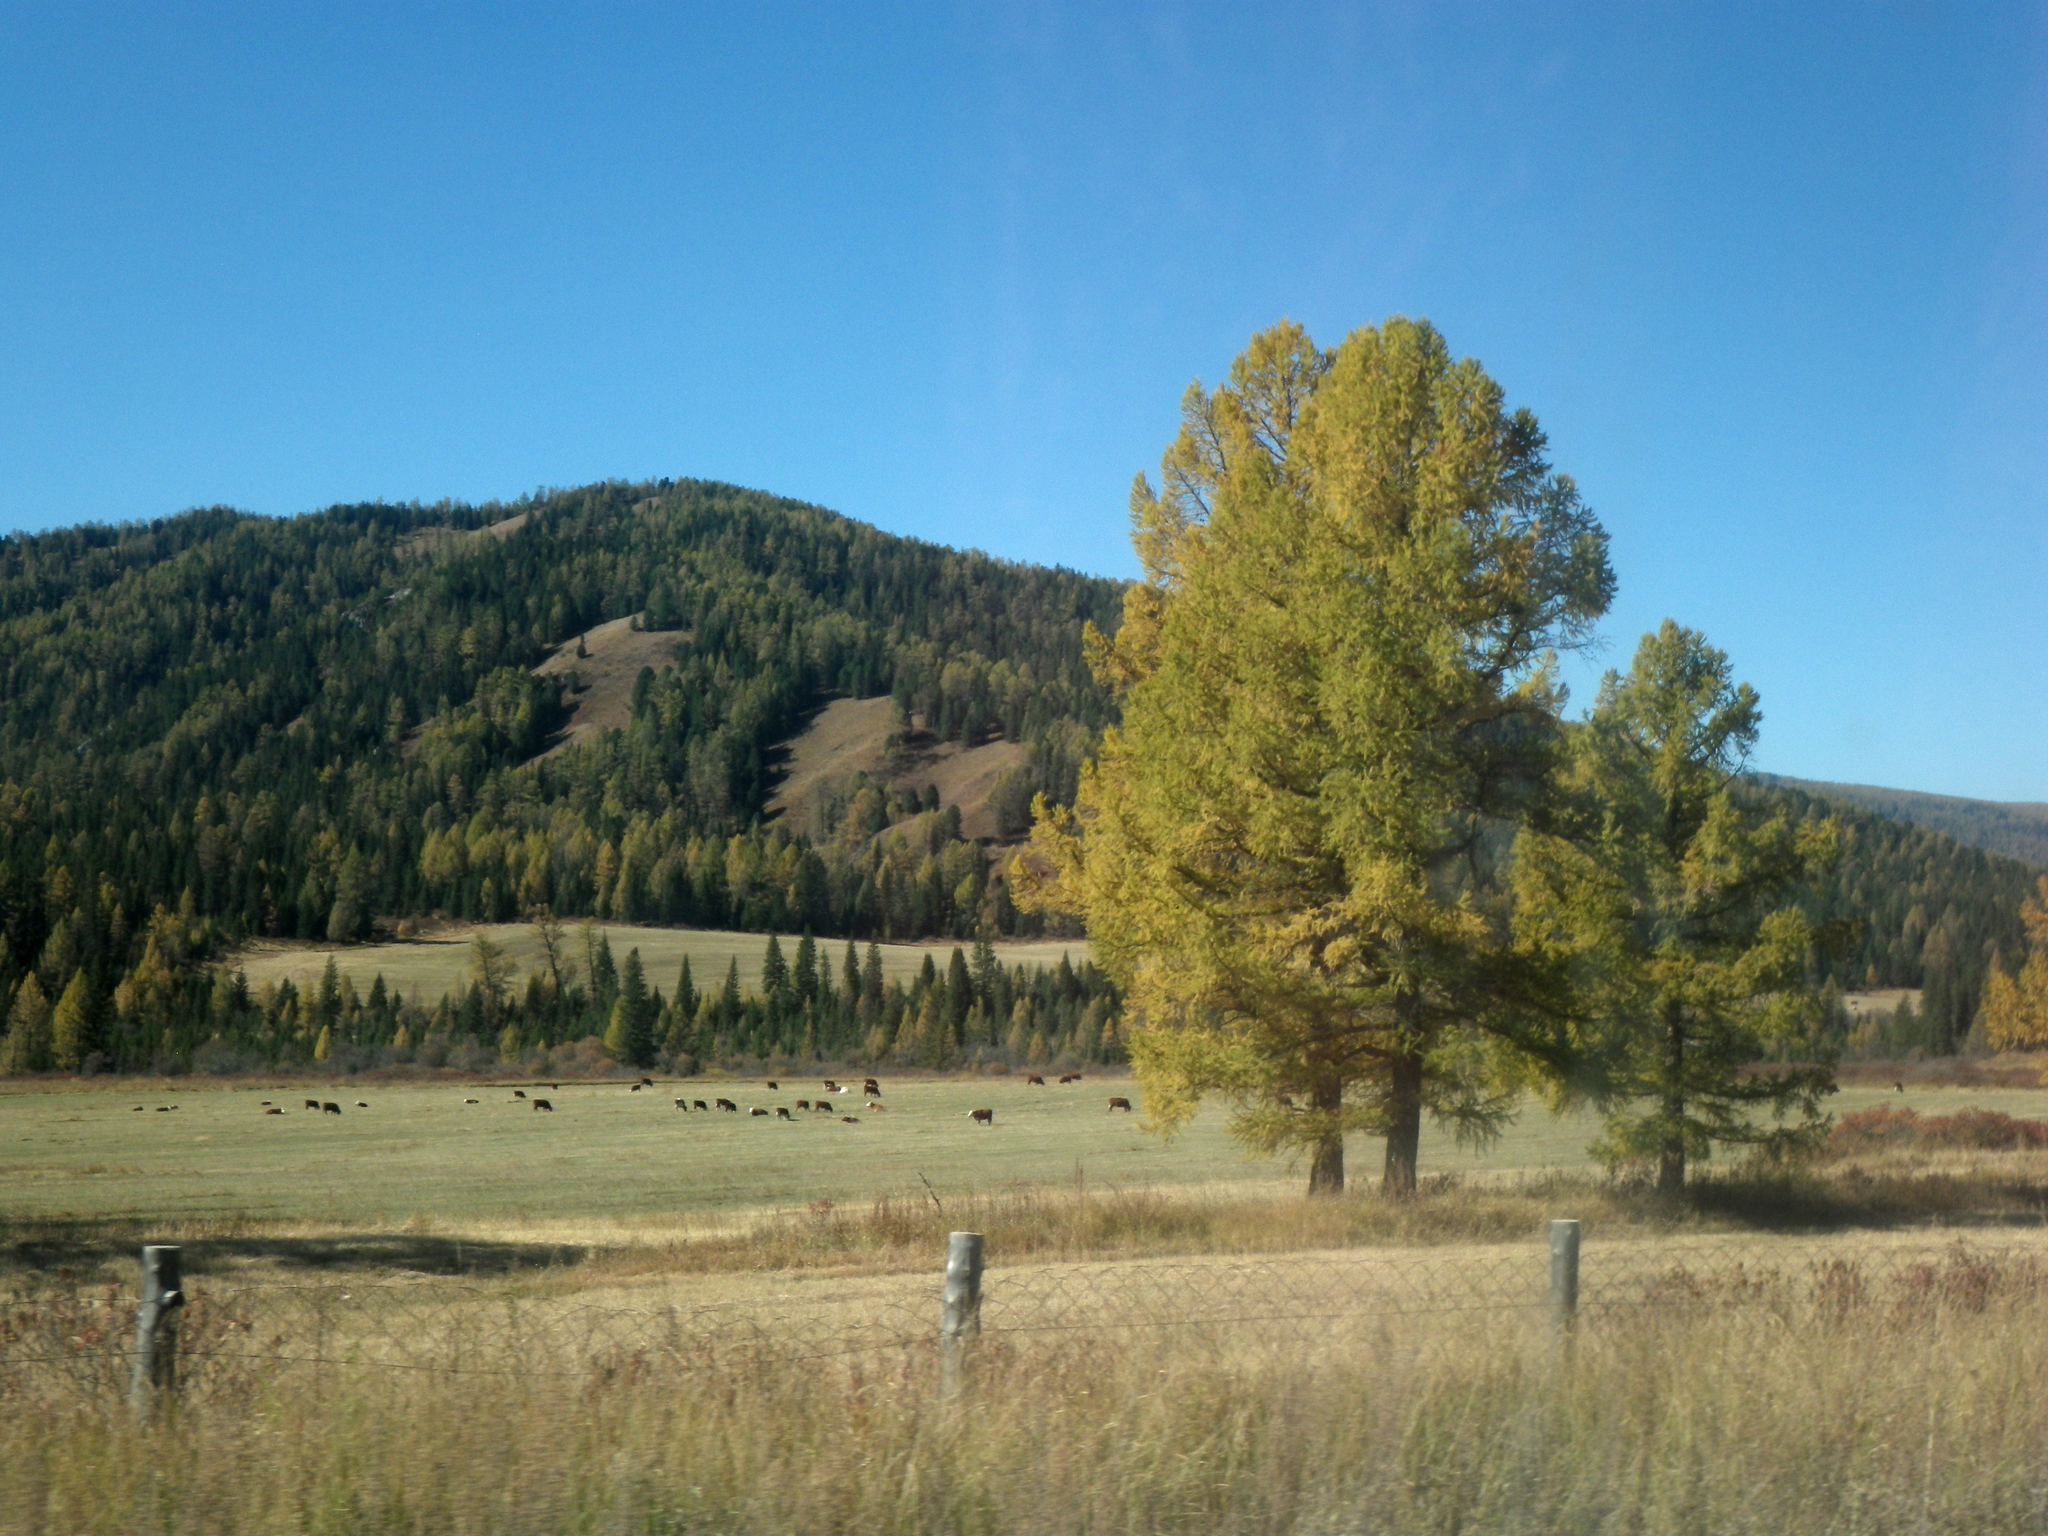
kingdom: Plantae
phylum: Tracheophyta
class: Pinopsida
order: Pinales
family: Pinaceae
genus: Larix
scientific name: Larix sibirica
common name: Siberian larch
